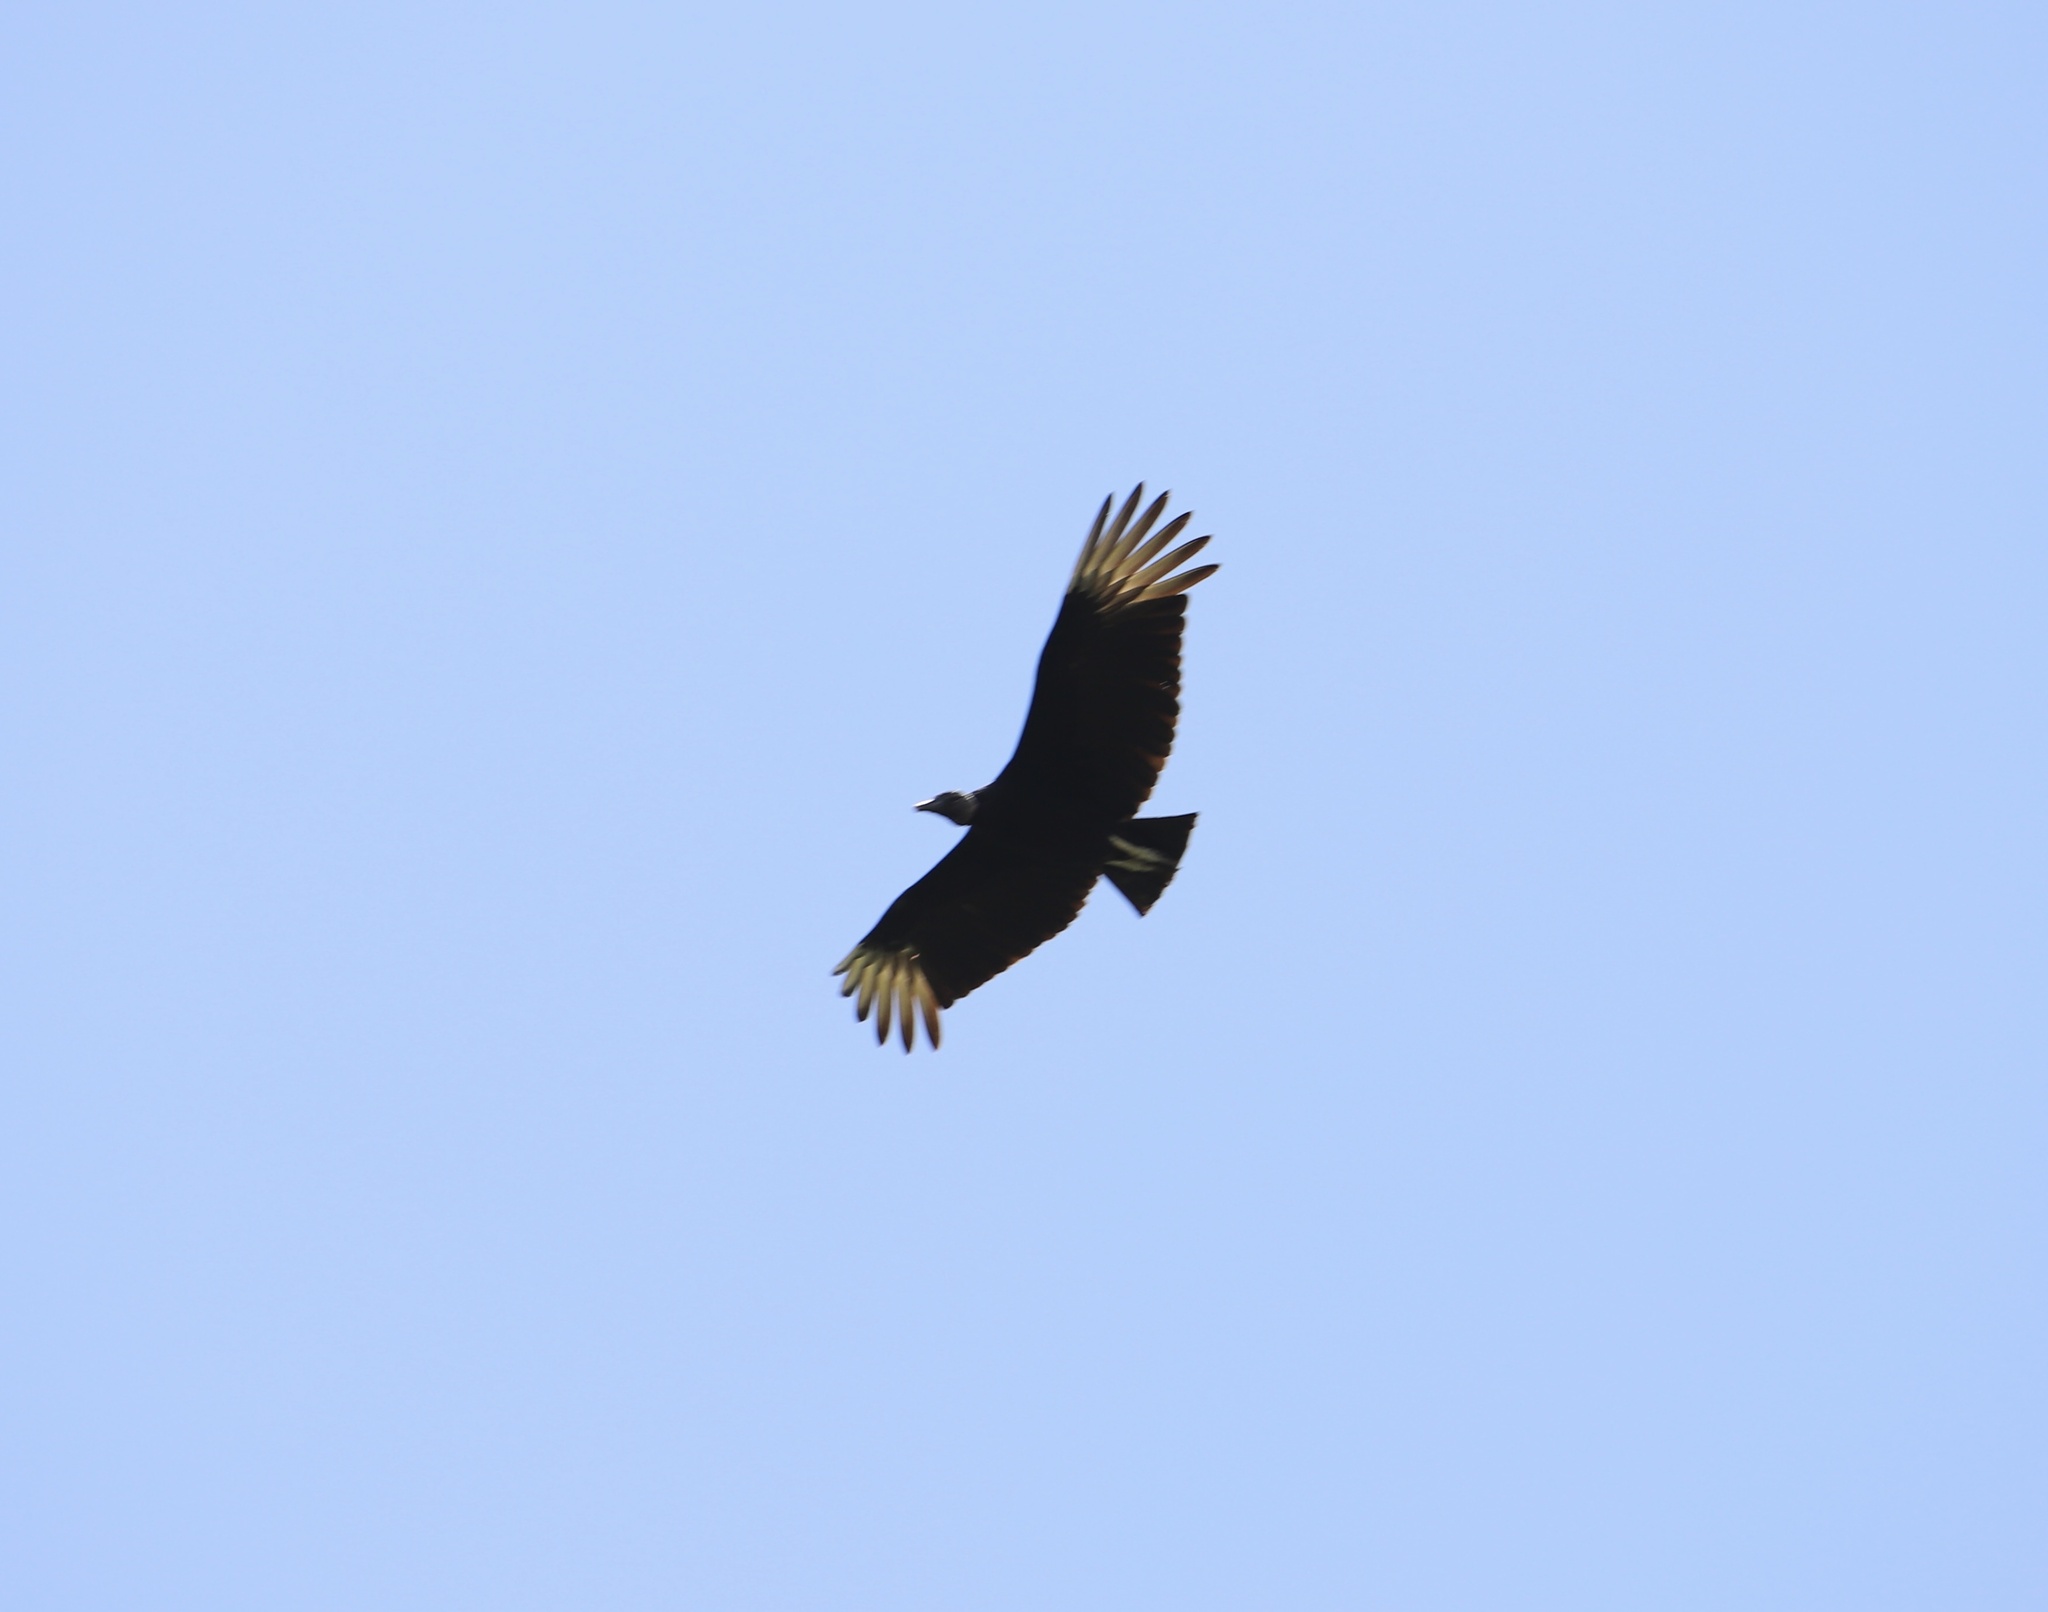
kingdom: Animalia
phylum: Chordata
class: Aves
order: Accipitriformes
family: Cathartidae
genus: Coragyps
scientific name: Coragyps atratus
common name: Black vulture
